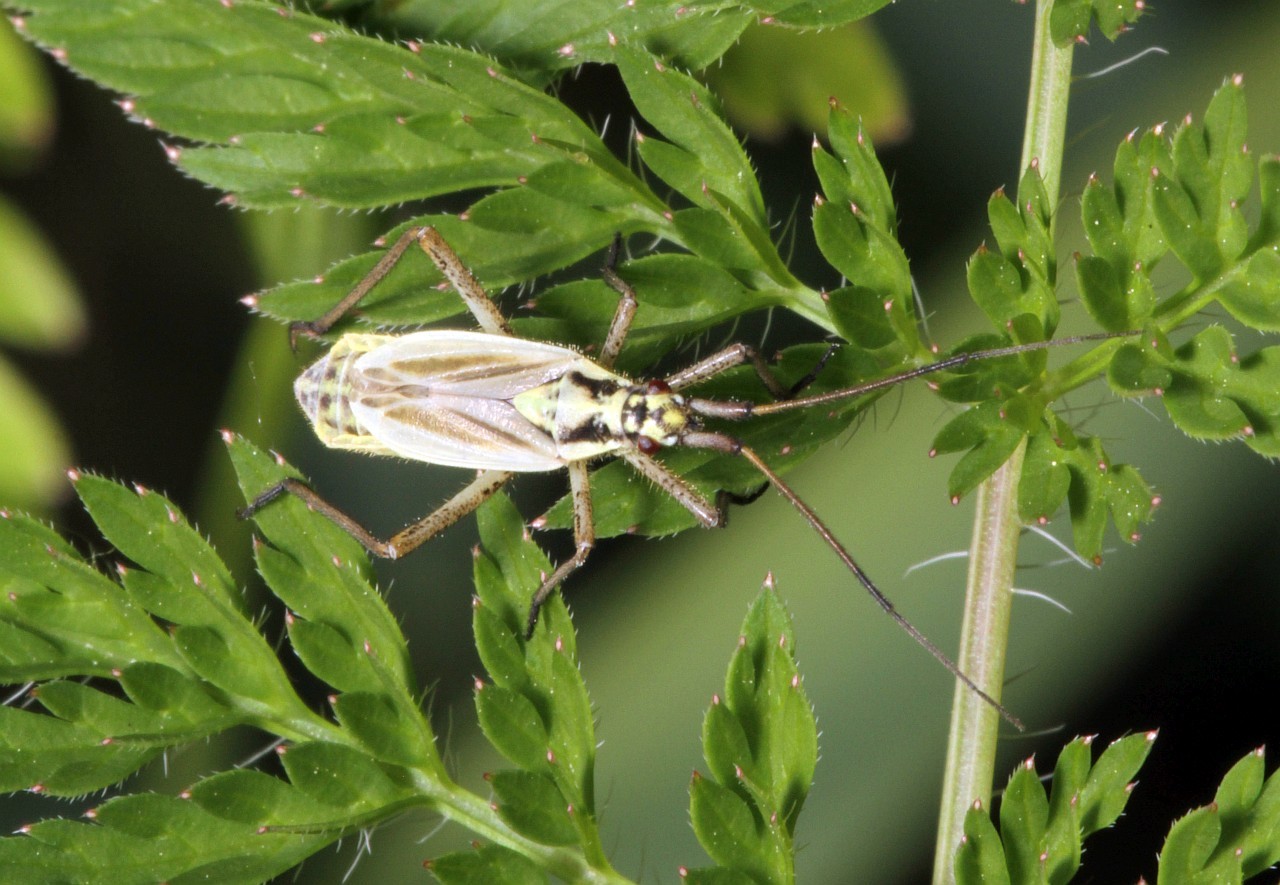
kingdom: Animalia
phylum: Arthropoda
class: Insecta
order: Hemiptera
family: Miridae
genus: Leptopterna
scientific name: Leptopterna dolabrata
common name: Meadow plant bug
